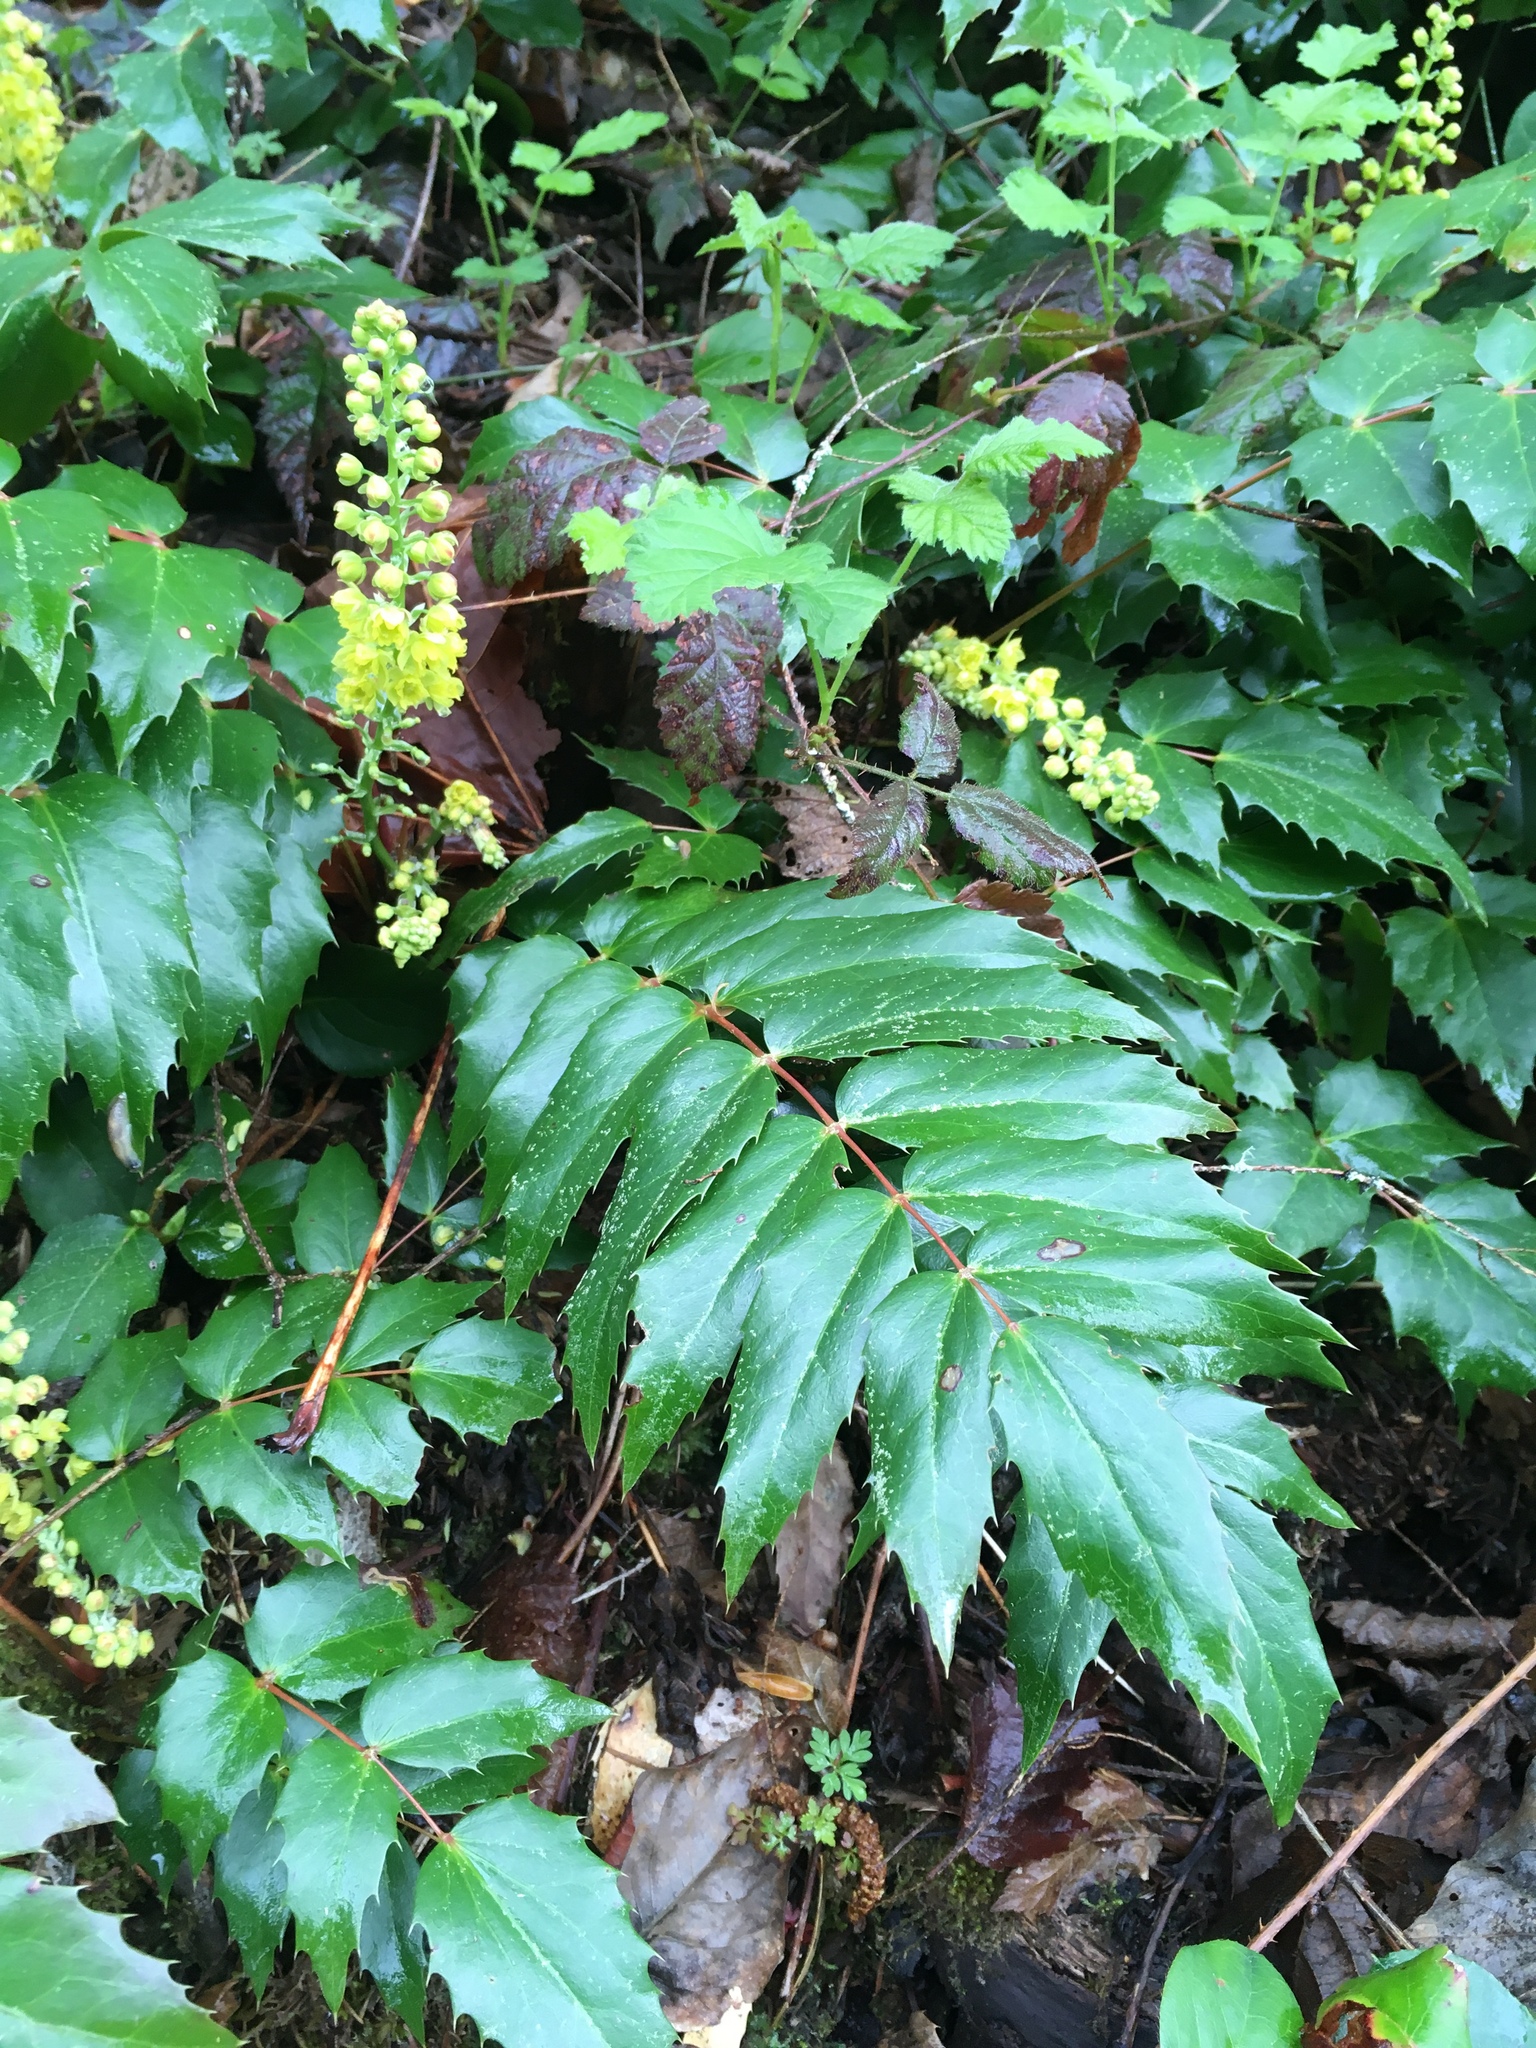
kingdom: Plantae
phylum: Tracheophyta
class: Magnoliopsida
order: Ranunculales
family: Berberidaceae
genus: Mahonia
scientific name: Mahonia nervosa
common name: Cascade oregon-grape
